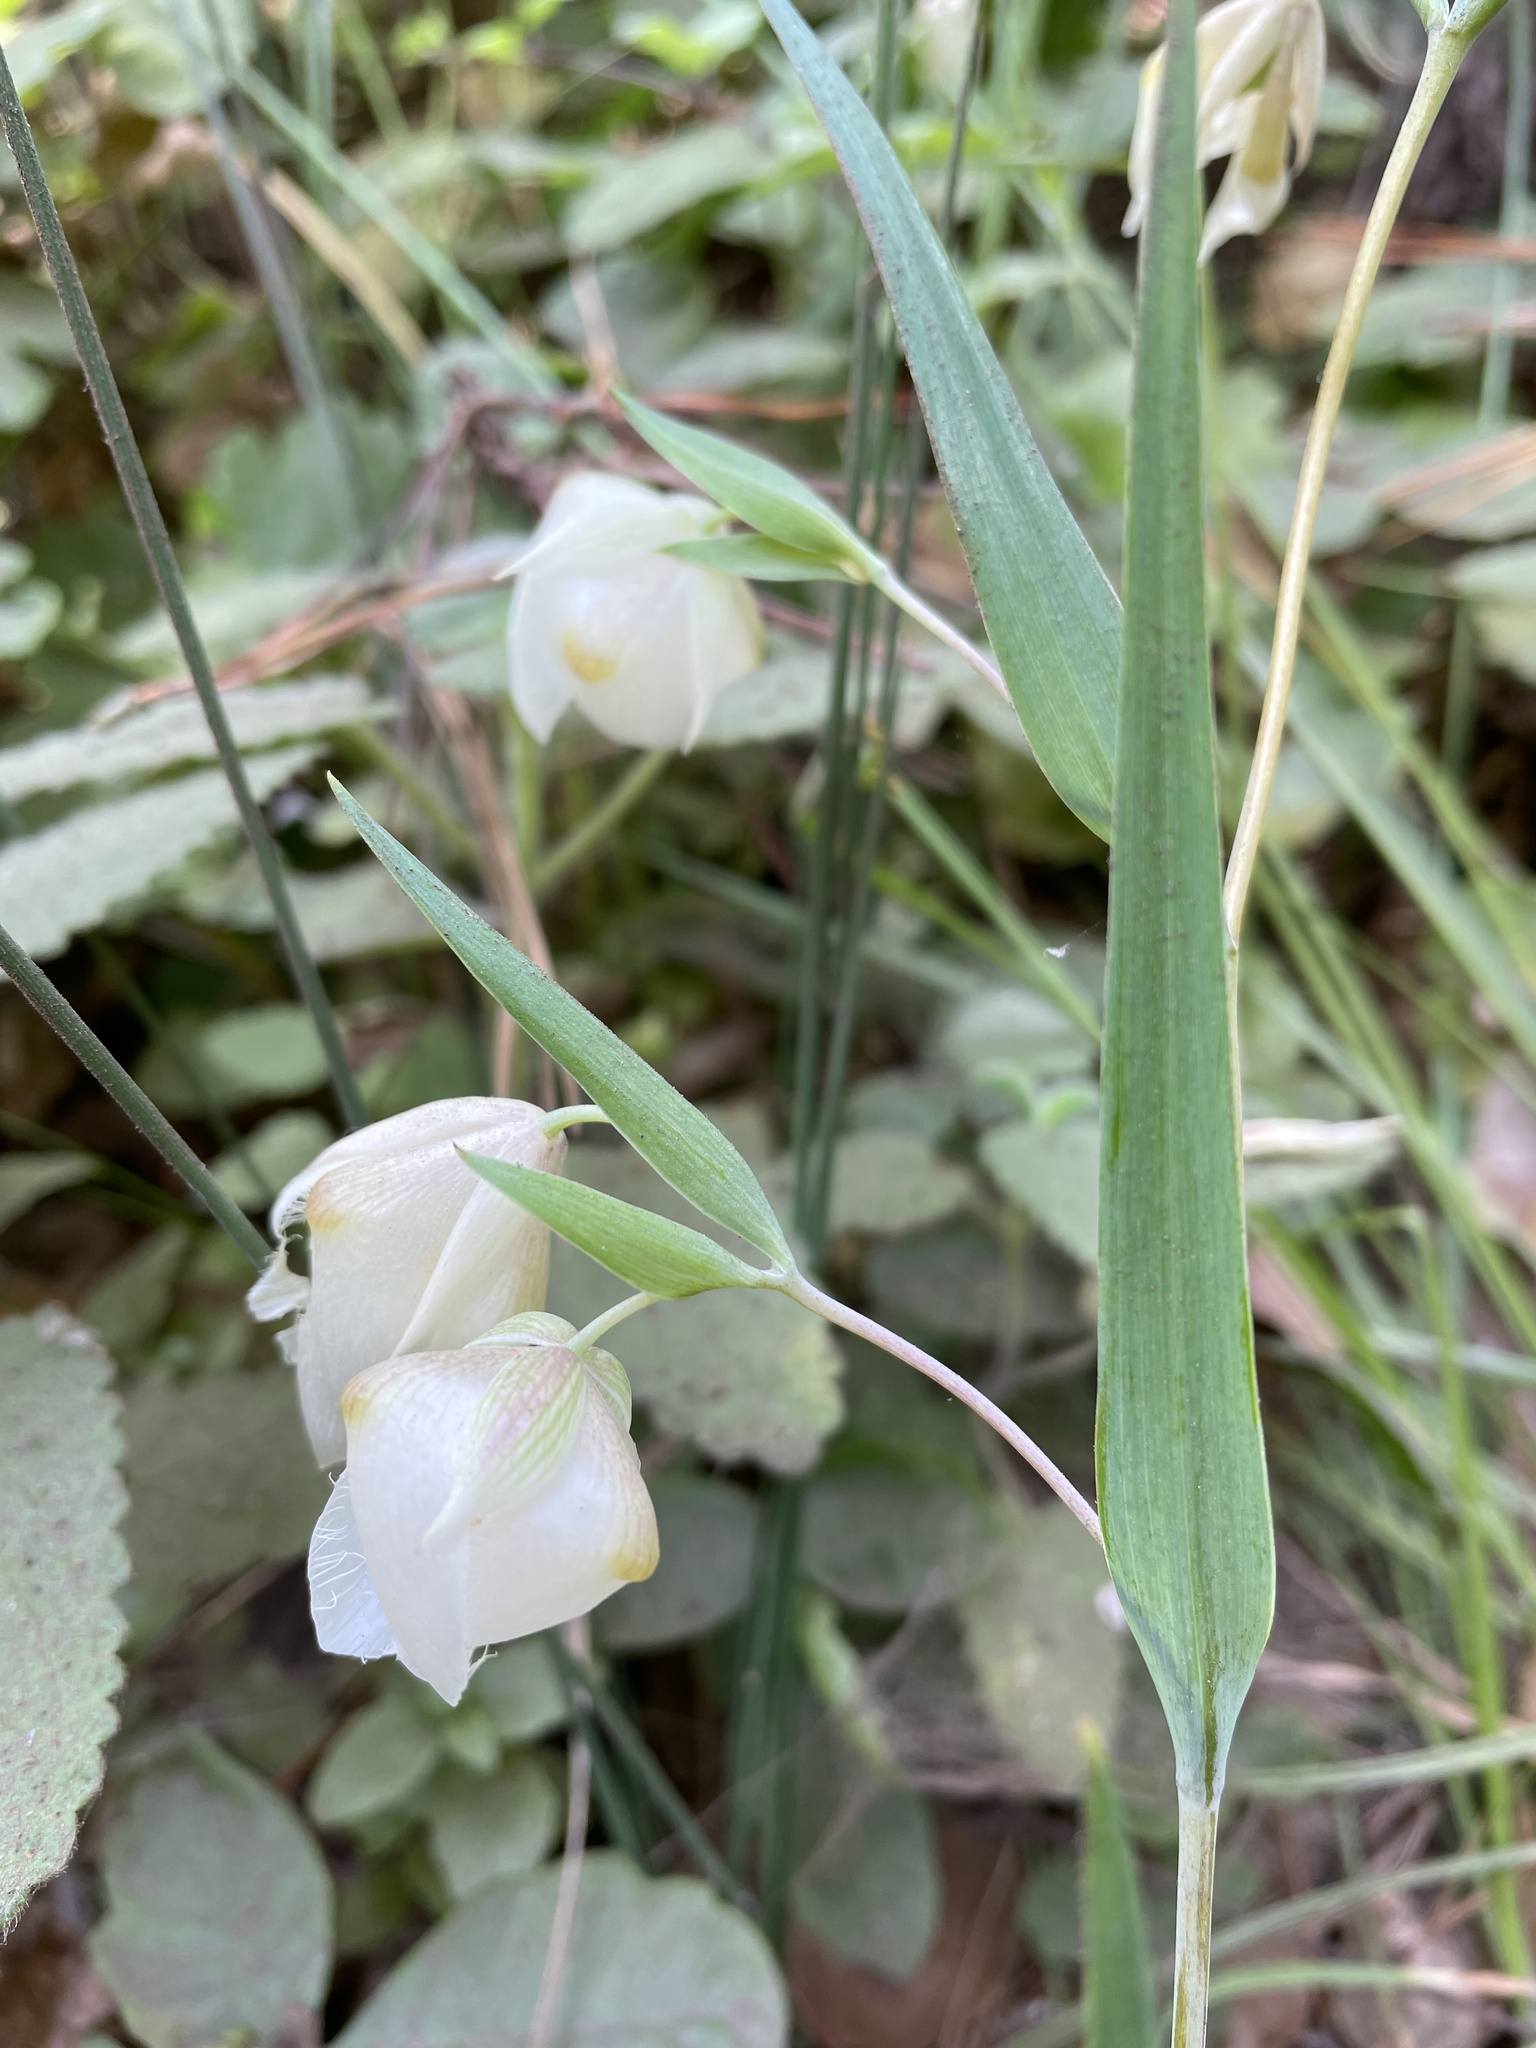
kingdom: Plantae
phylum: Tracheophyta
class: Liliopsida
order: Liliales
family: Liliaceae
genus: Calochortus
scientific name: Calochortus albus
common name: Fairy-lantern
